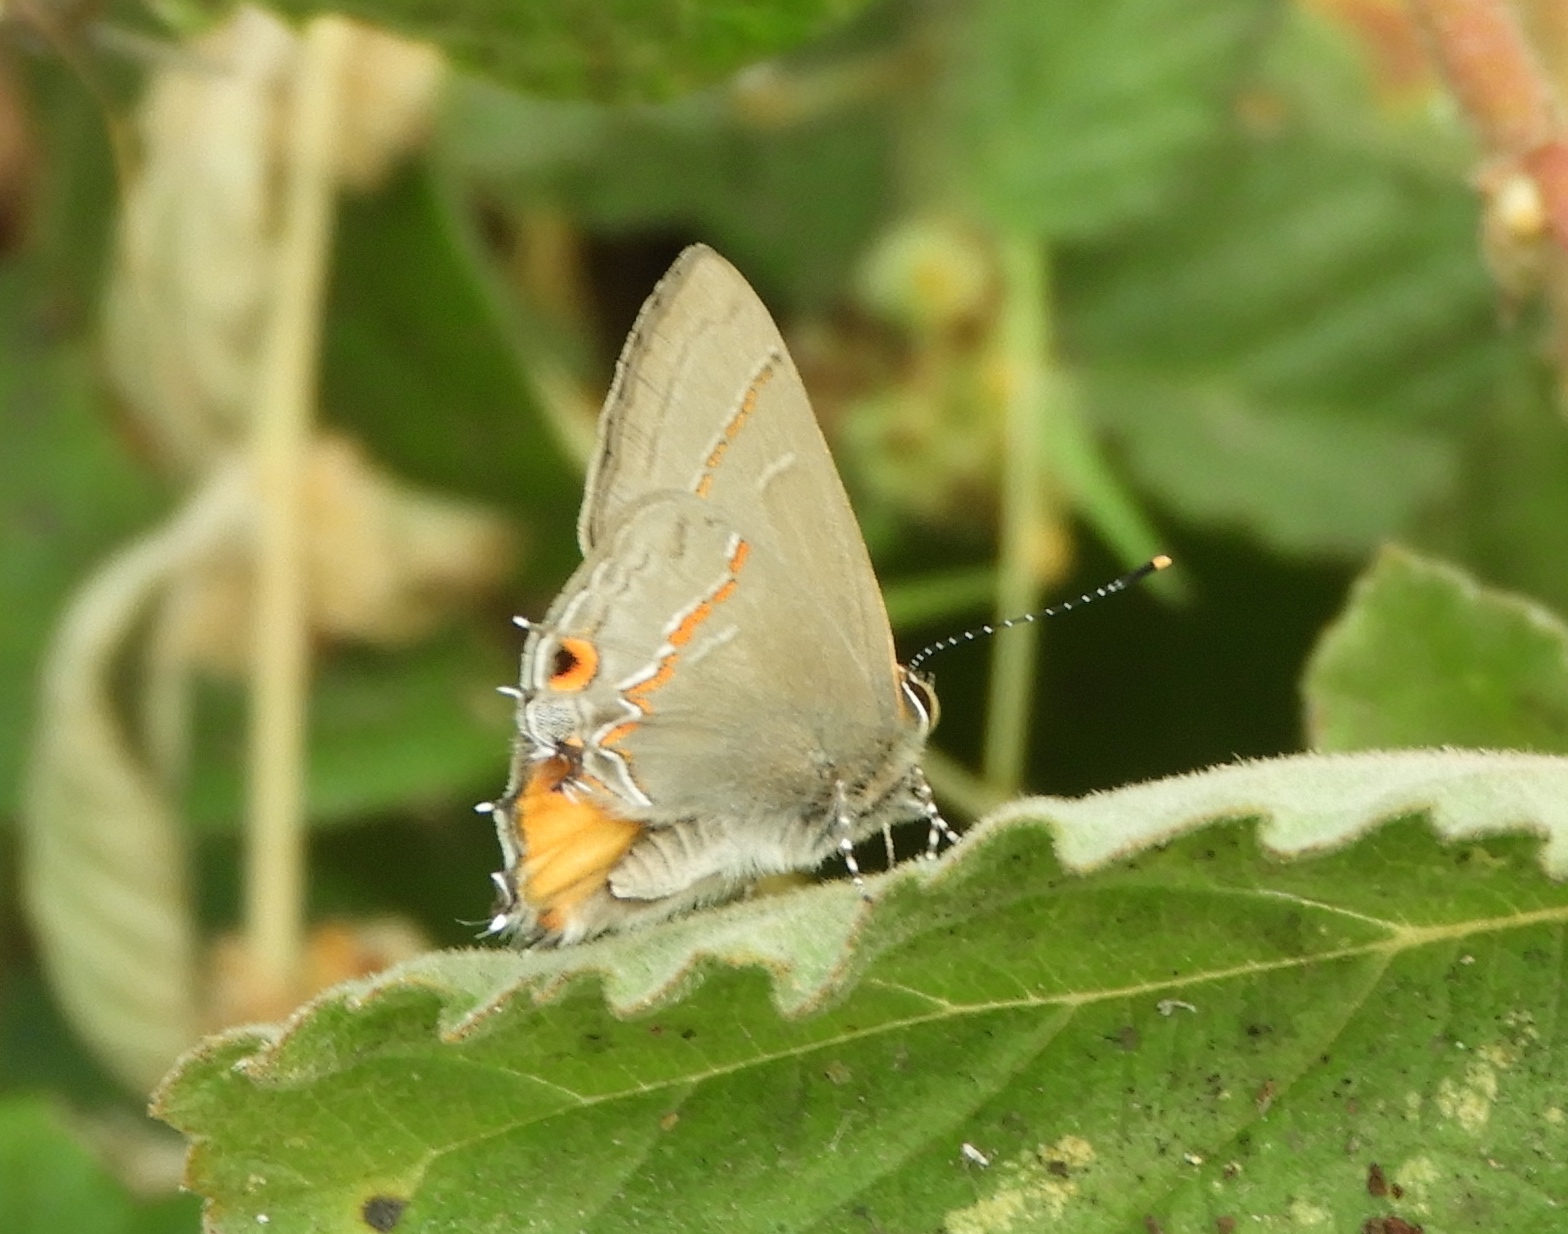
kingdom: Animalia
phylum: Arthropoda
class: Insecta
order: Lepidoptera
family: Lycaenidae
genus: Electrostrymon
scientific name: Electrostrymon endymion
